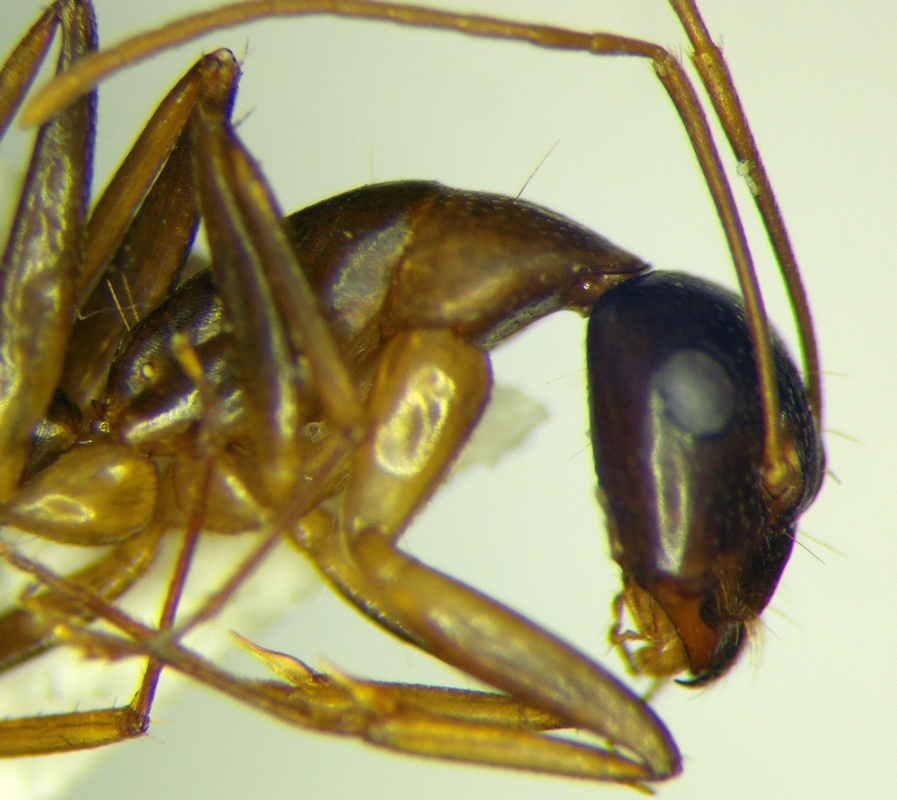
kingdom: Animalia
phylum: Arthropoda
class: Insecta
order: Hymenoptera
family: Formicidae
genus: Camponotus
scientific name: Camponotus baldaccii
